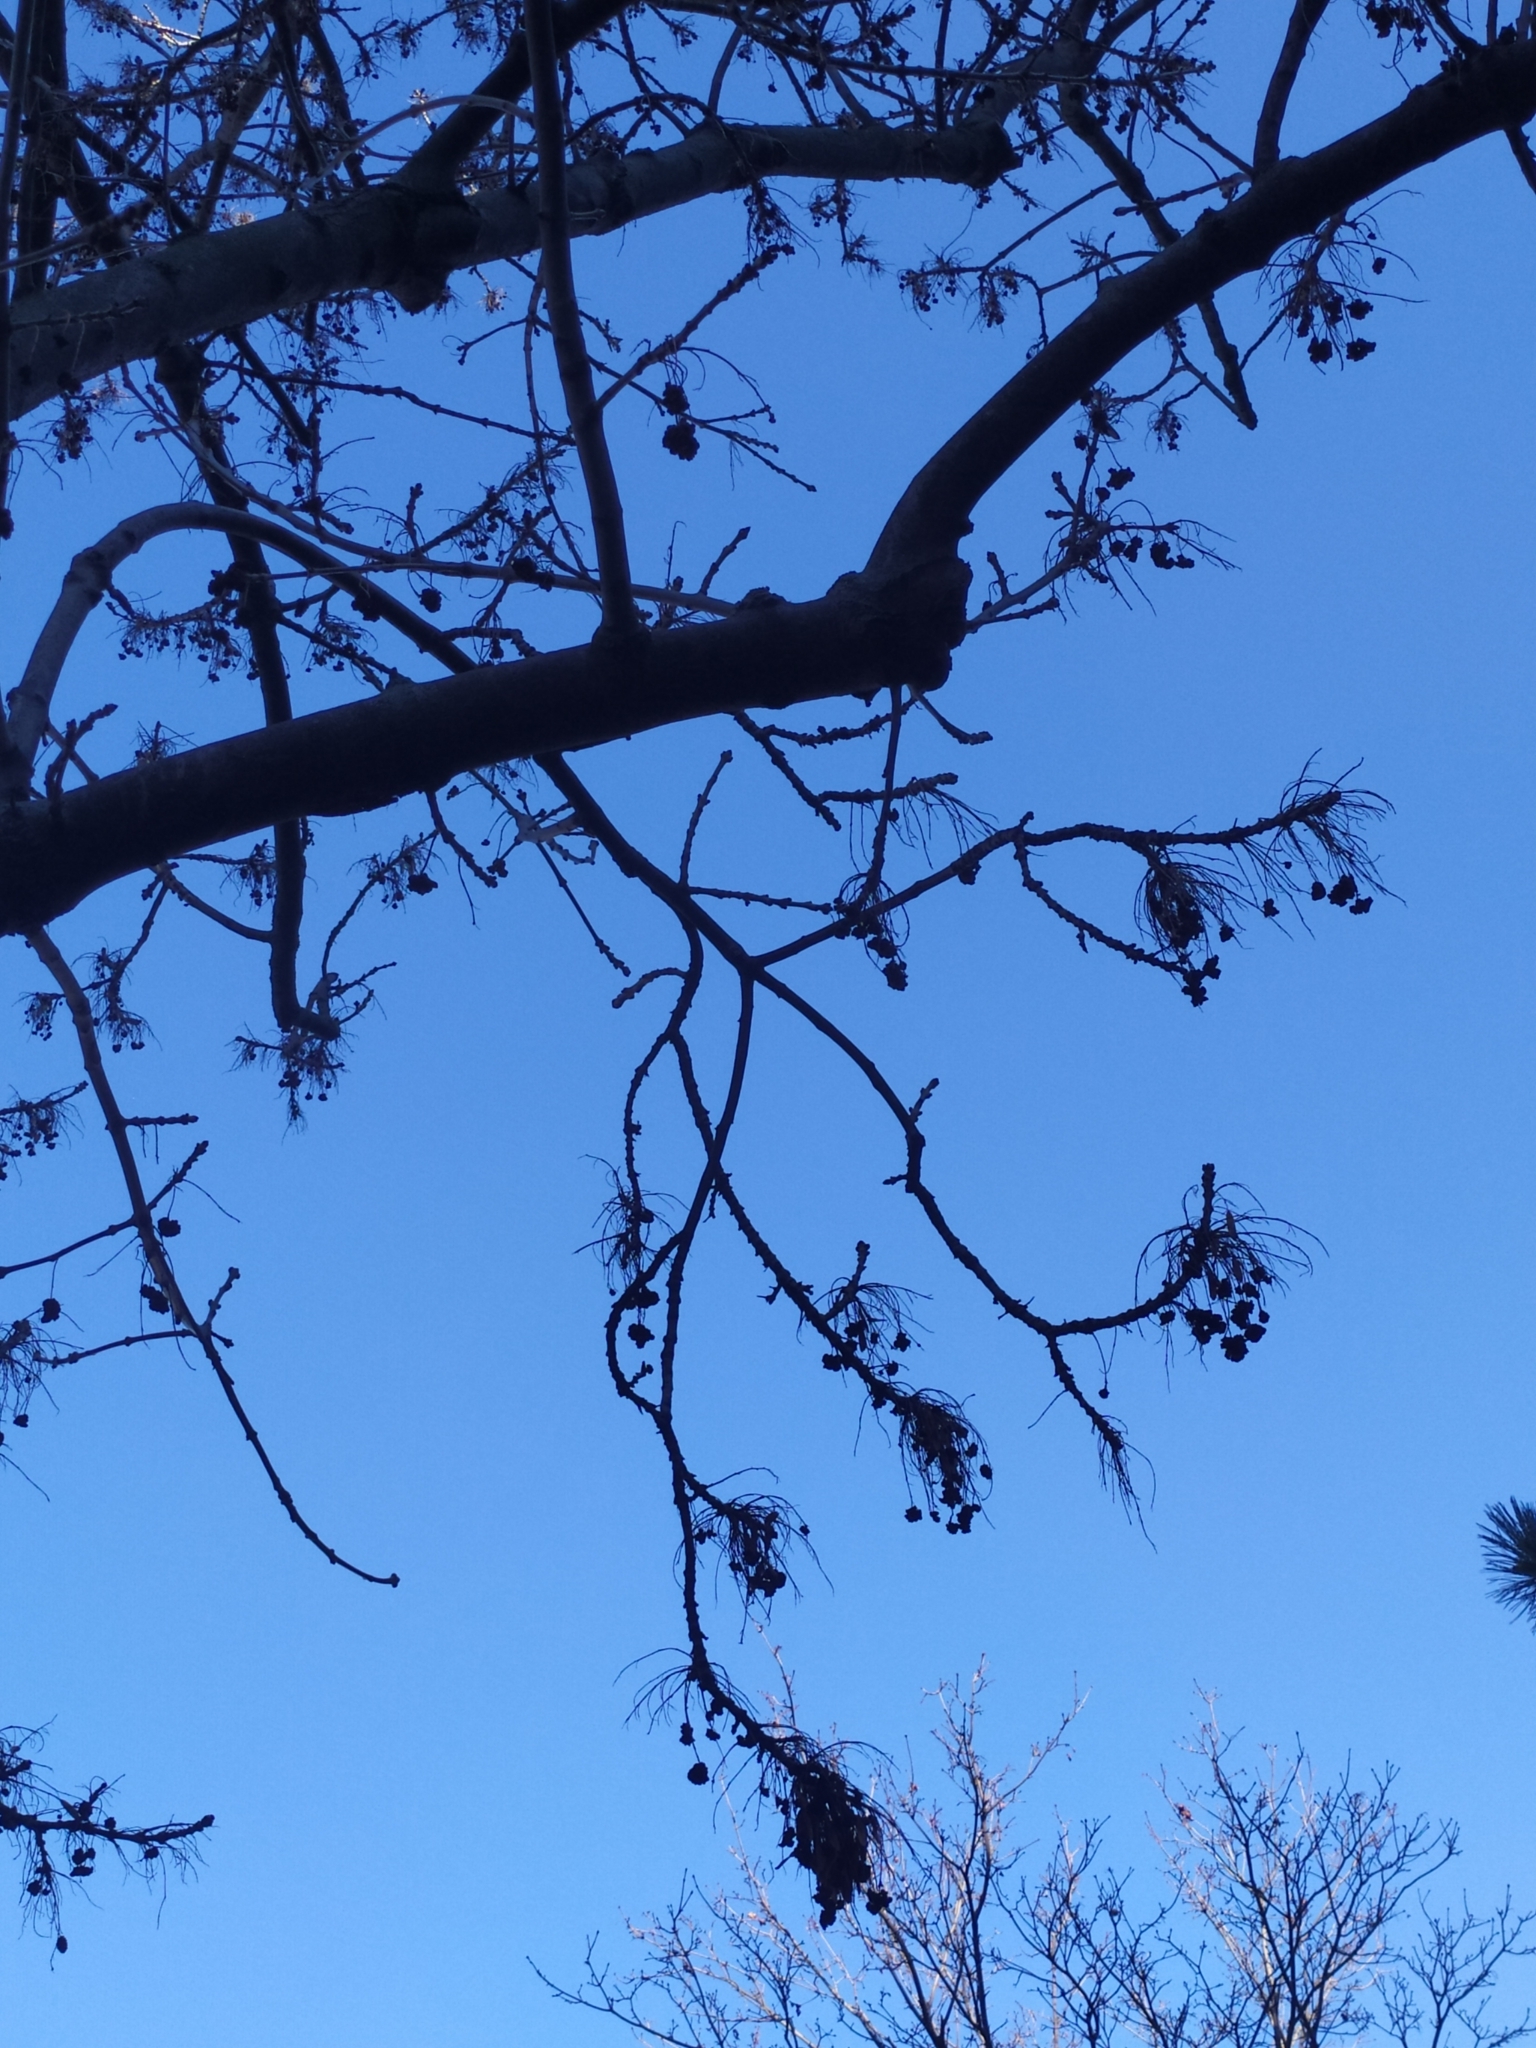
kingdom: Animalia
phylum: Arthropoda
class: Arachnida
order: Trombidiformes
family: Eriophyidae
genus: Aceria
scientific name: Aceria fraxinivora
